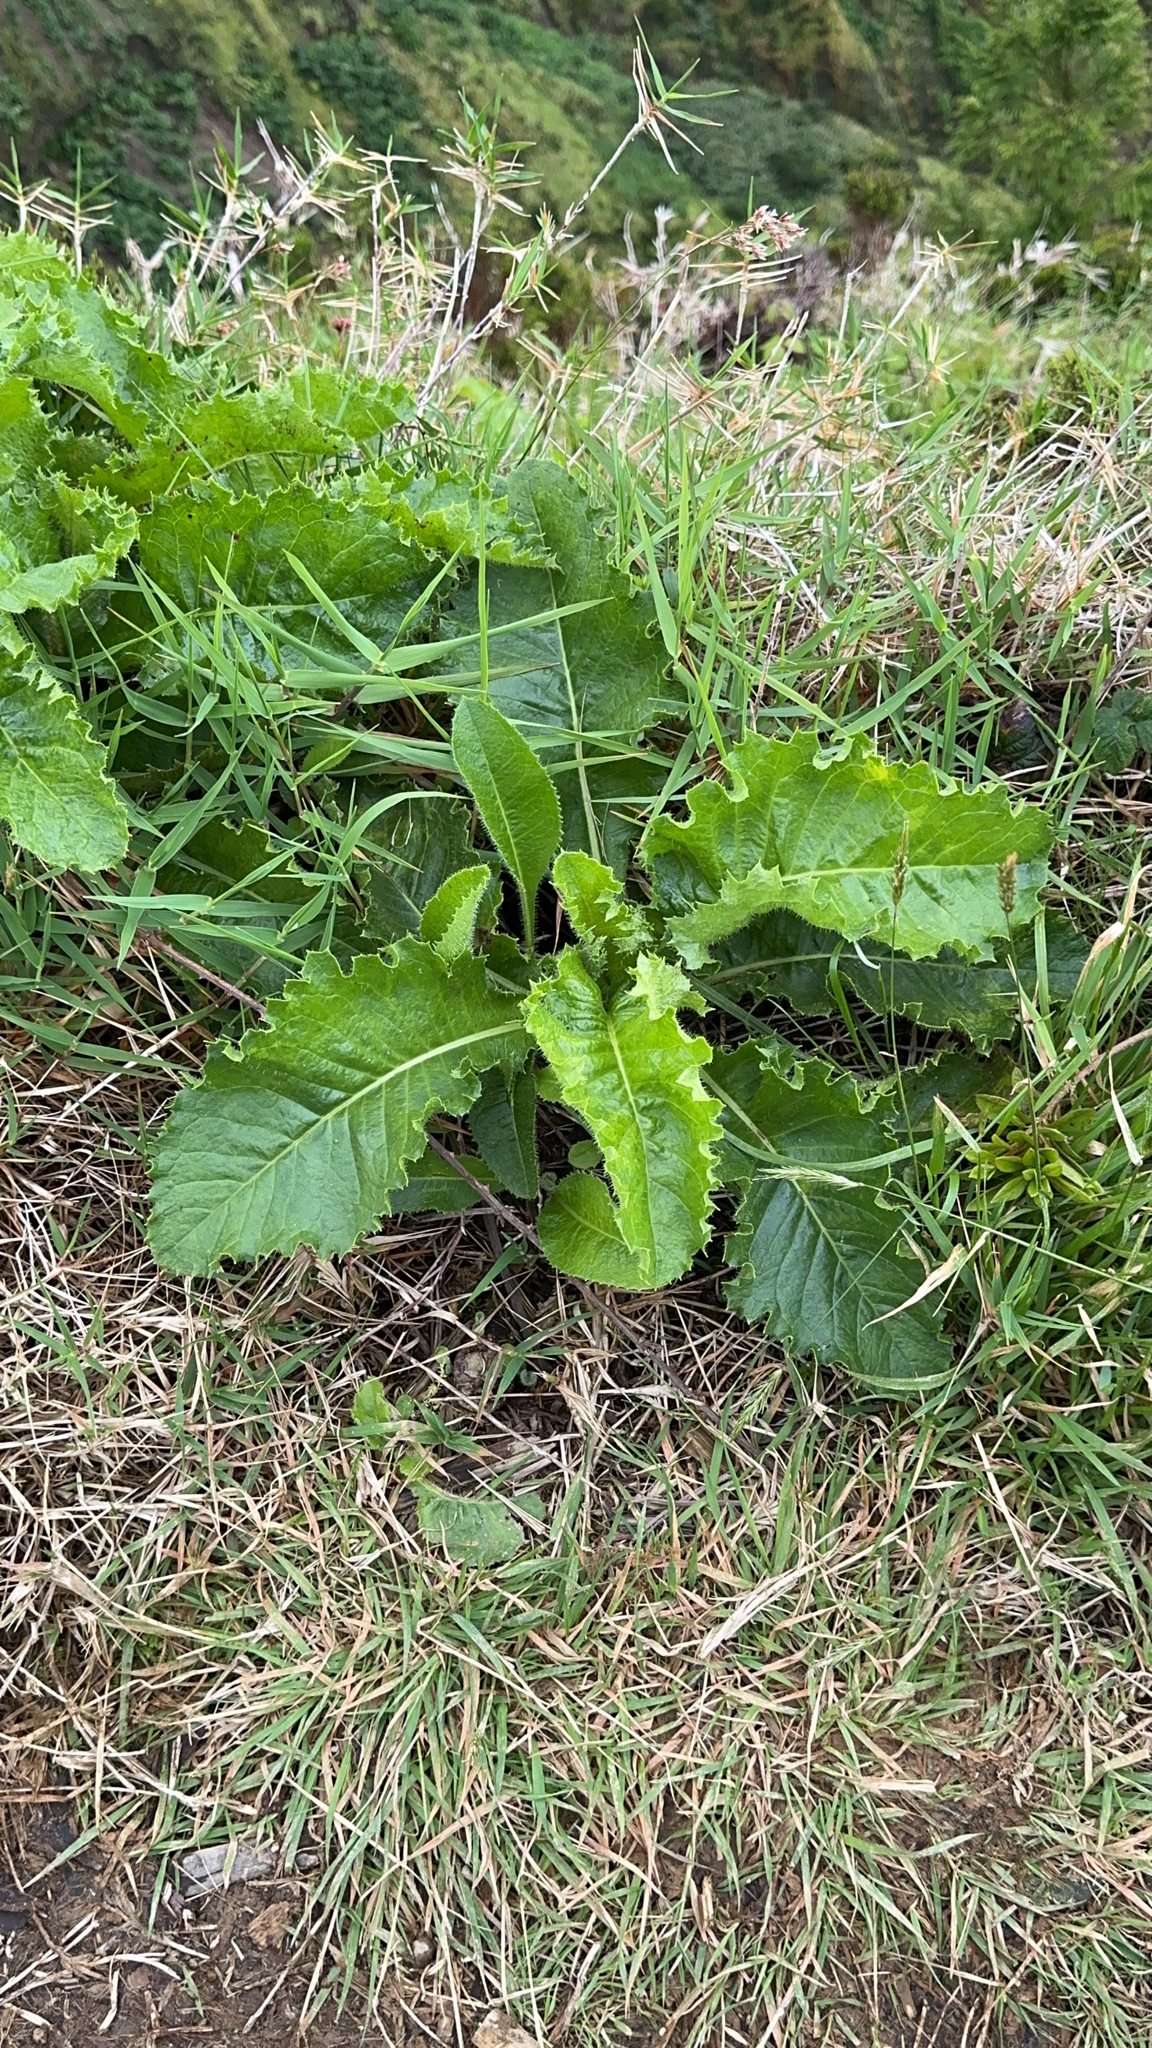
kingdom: Plantae
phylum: Tracheophyta
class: Magnoliopsida
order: Asterales
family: Asteraceae
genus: Leontodon
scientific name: Leontodon rigens
